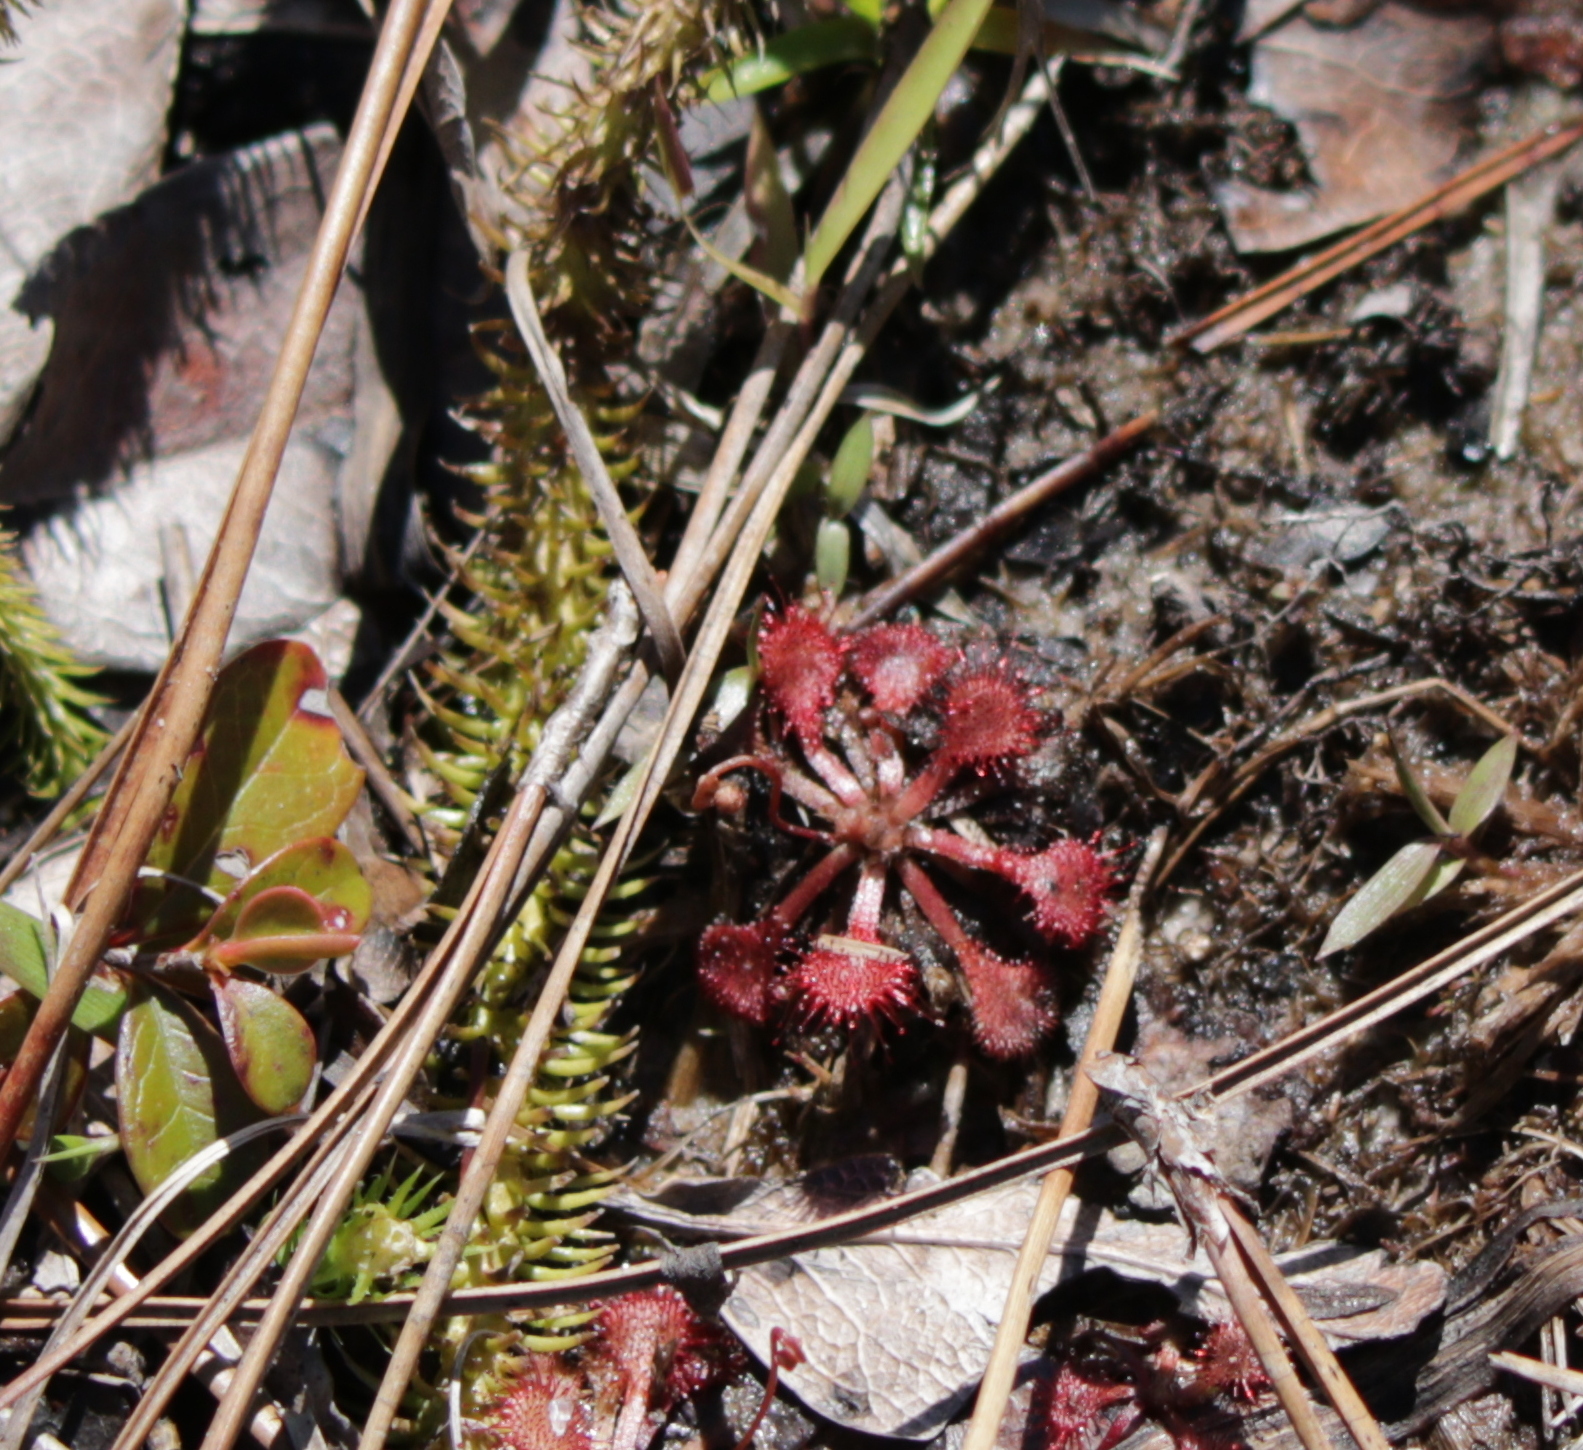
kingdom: Plantae
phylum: Tracheophyta
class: Magnoliopsida
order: Caryophyllales
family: Droseraceae
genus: Drosera
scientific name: Drosera capillaris
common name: Pink sundew
